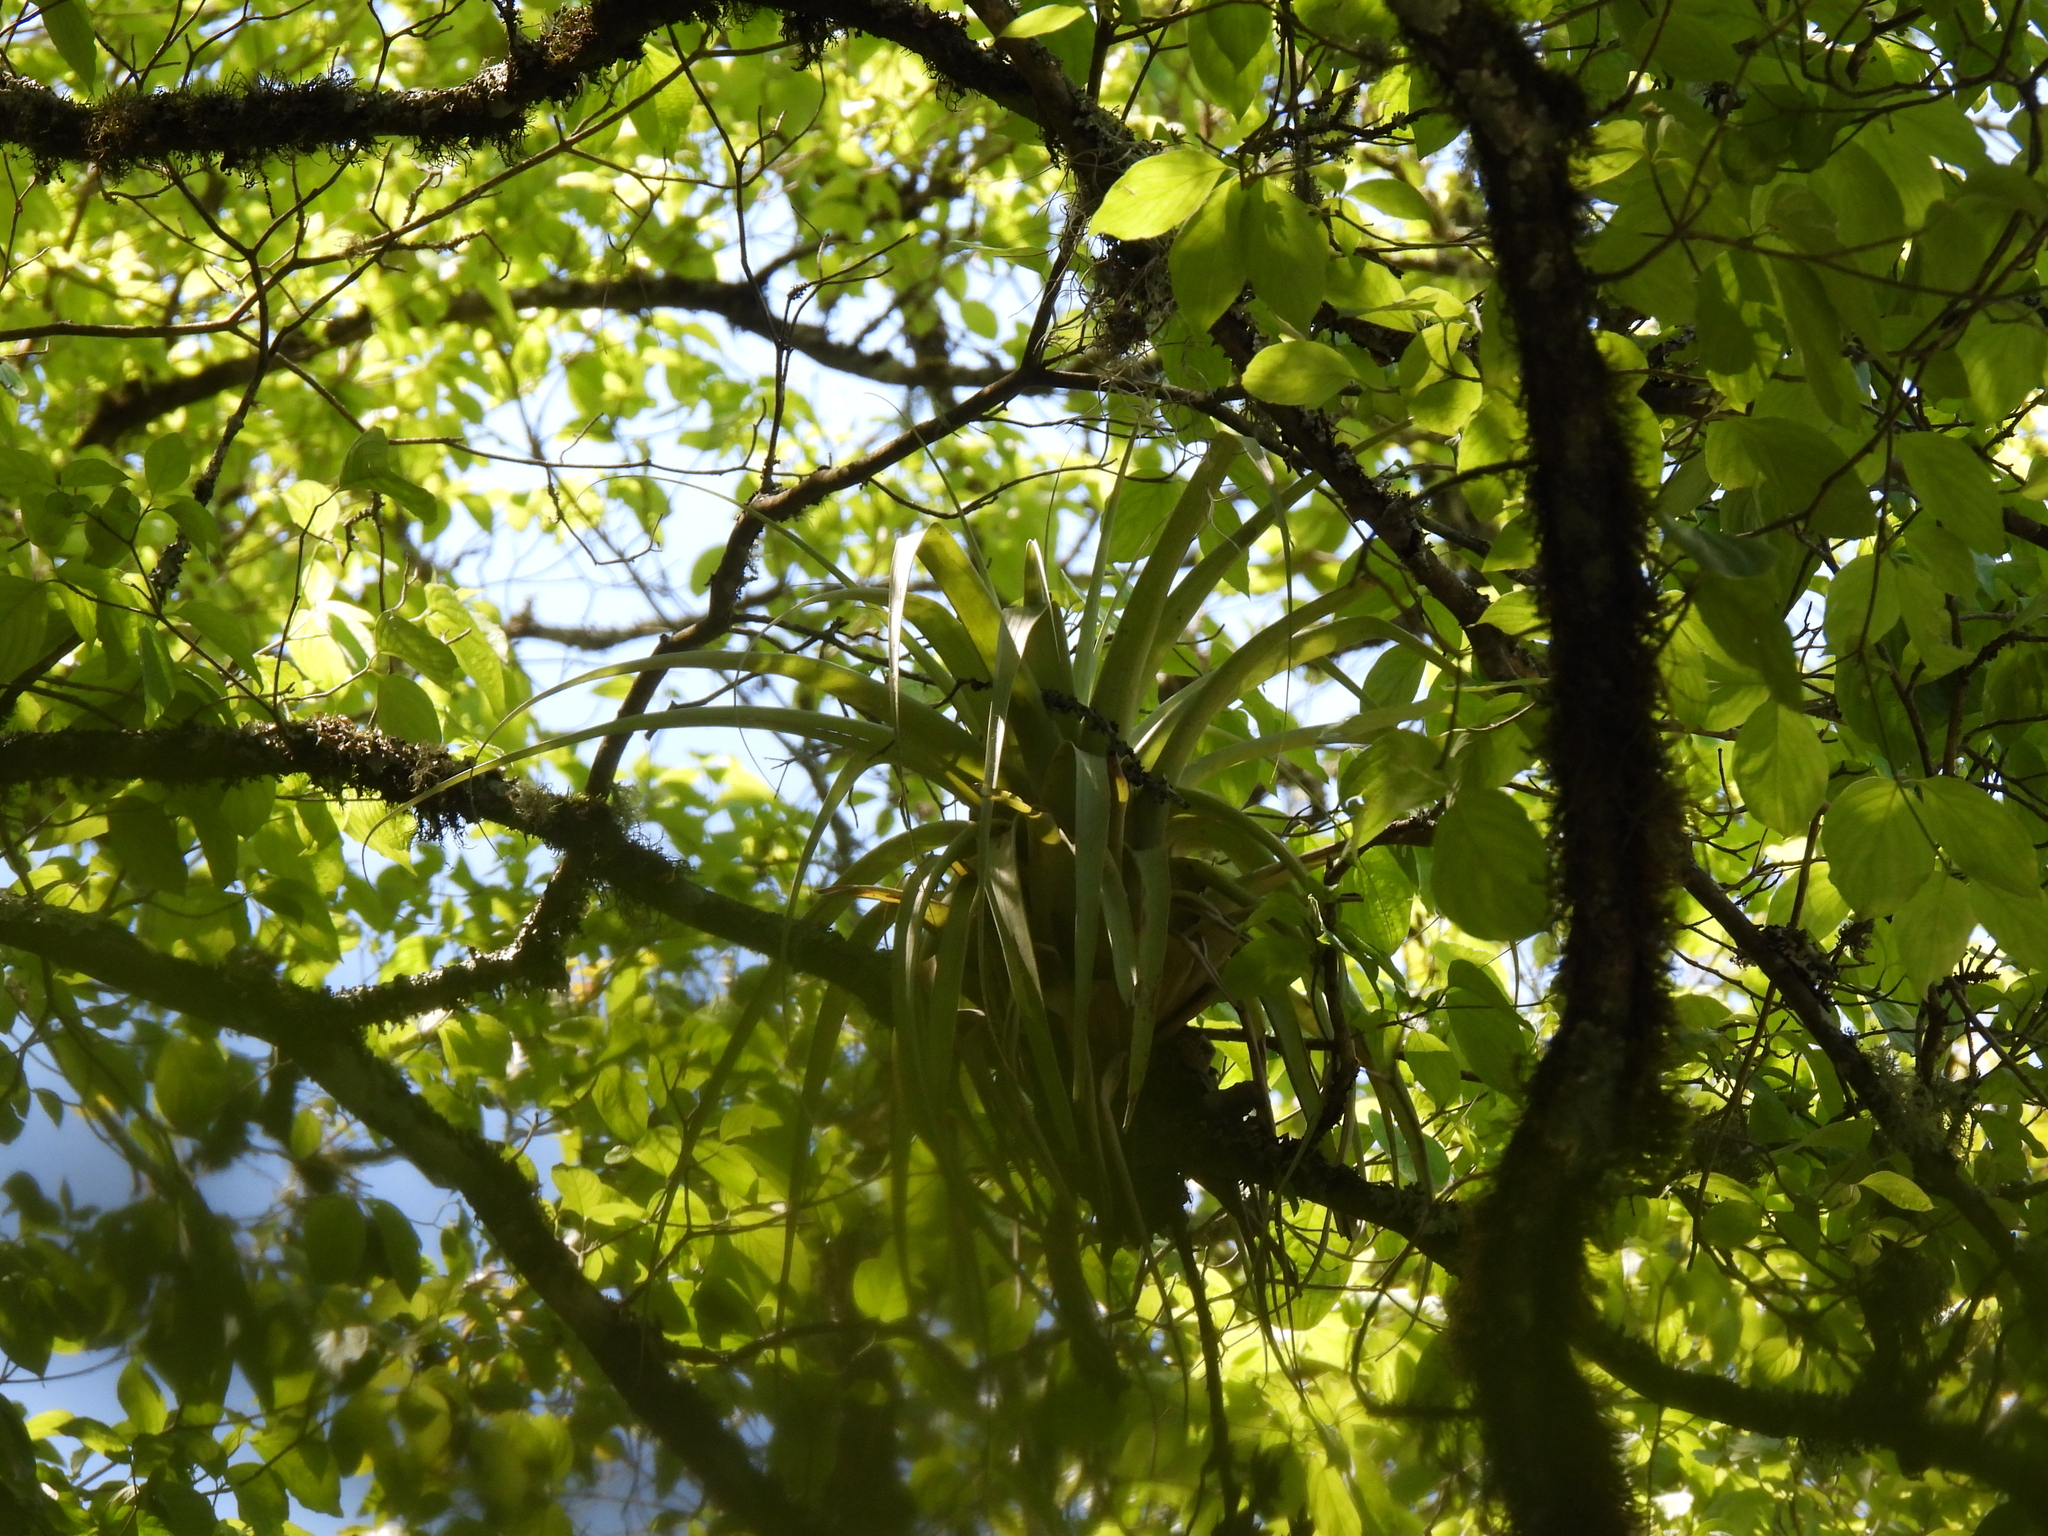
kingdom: Plantae
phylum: Tracheophyta
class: Liliopsida
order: Poales
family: Bromeliaceae
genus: Tillandsia
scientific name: Tillandsia parryi
